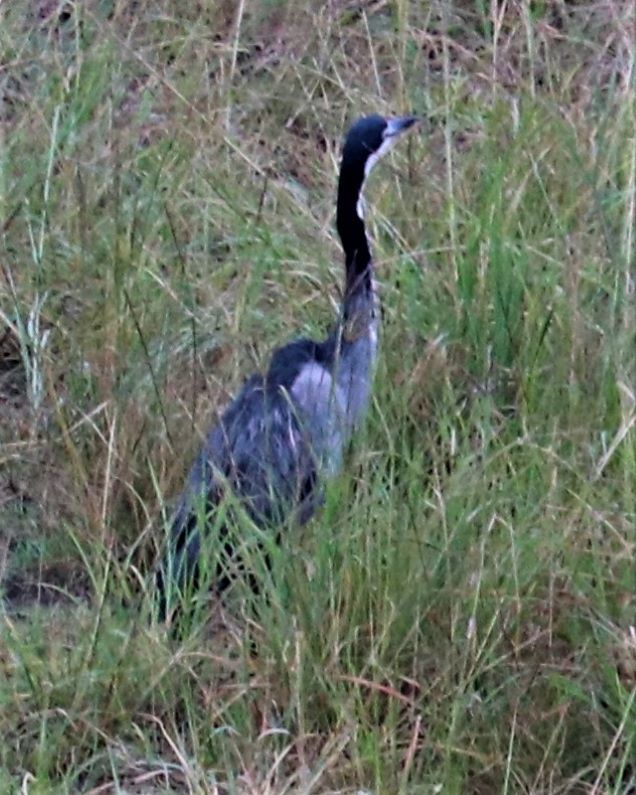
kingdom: Animalia
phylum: Chordata
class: Aves
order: Pelecaniformes
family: Ardeidae
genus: Ardea
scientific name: Ardea melanocephala
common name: Black-headed heron
